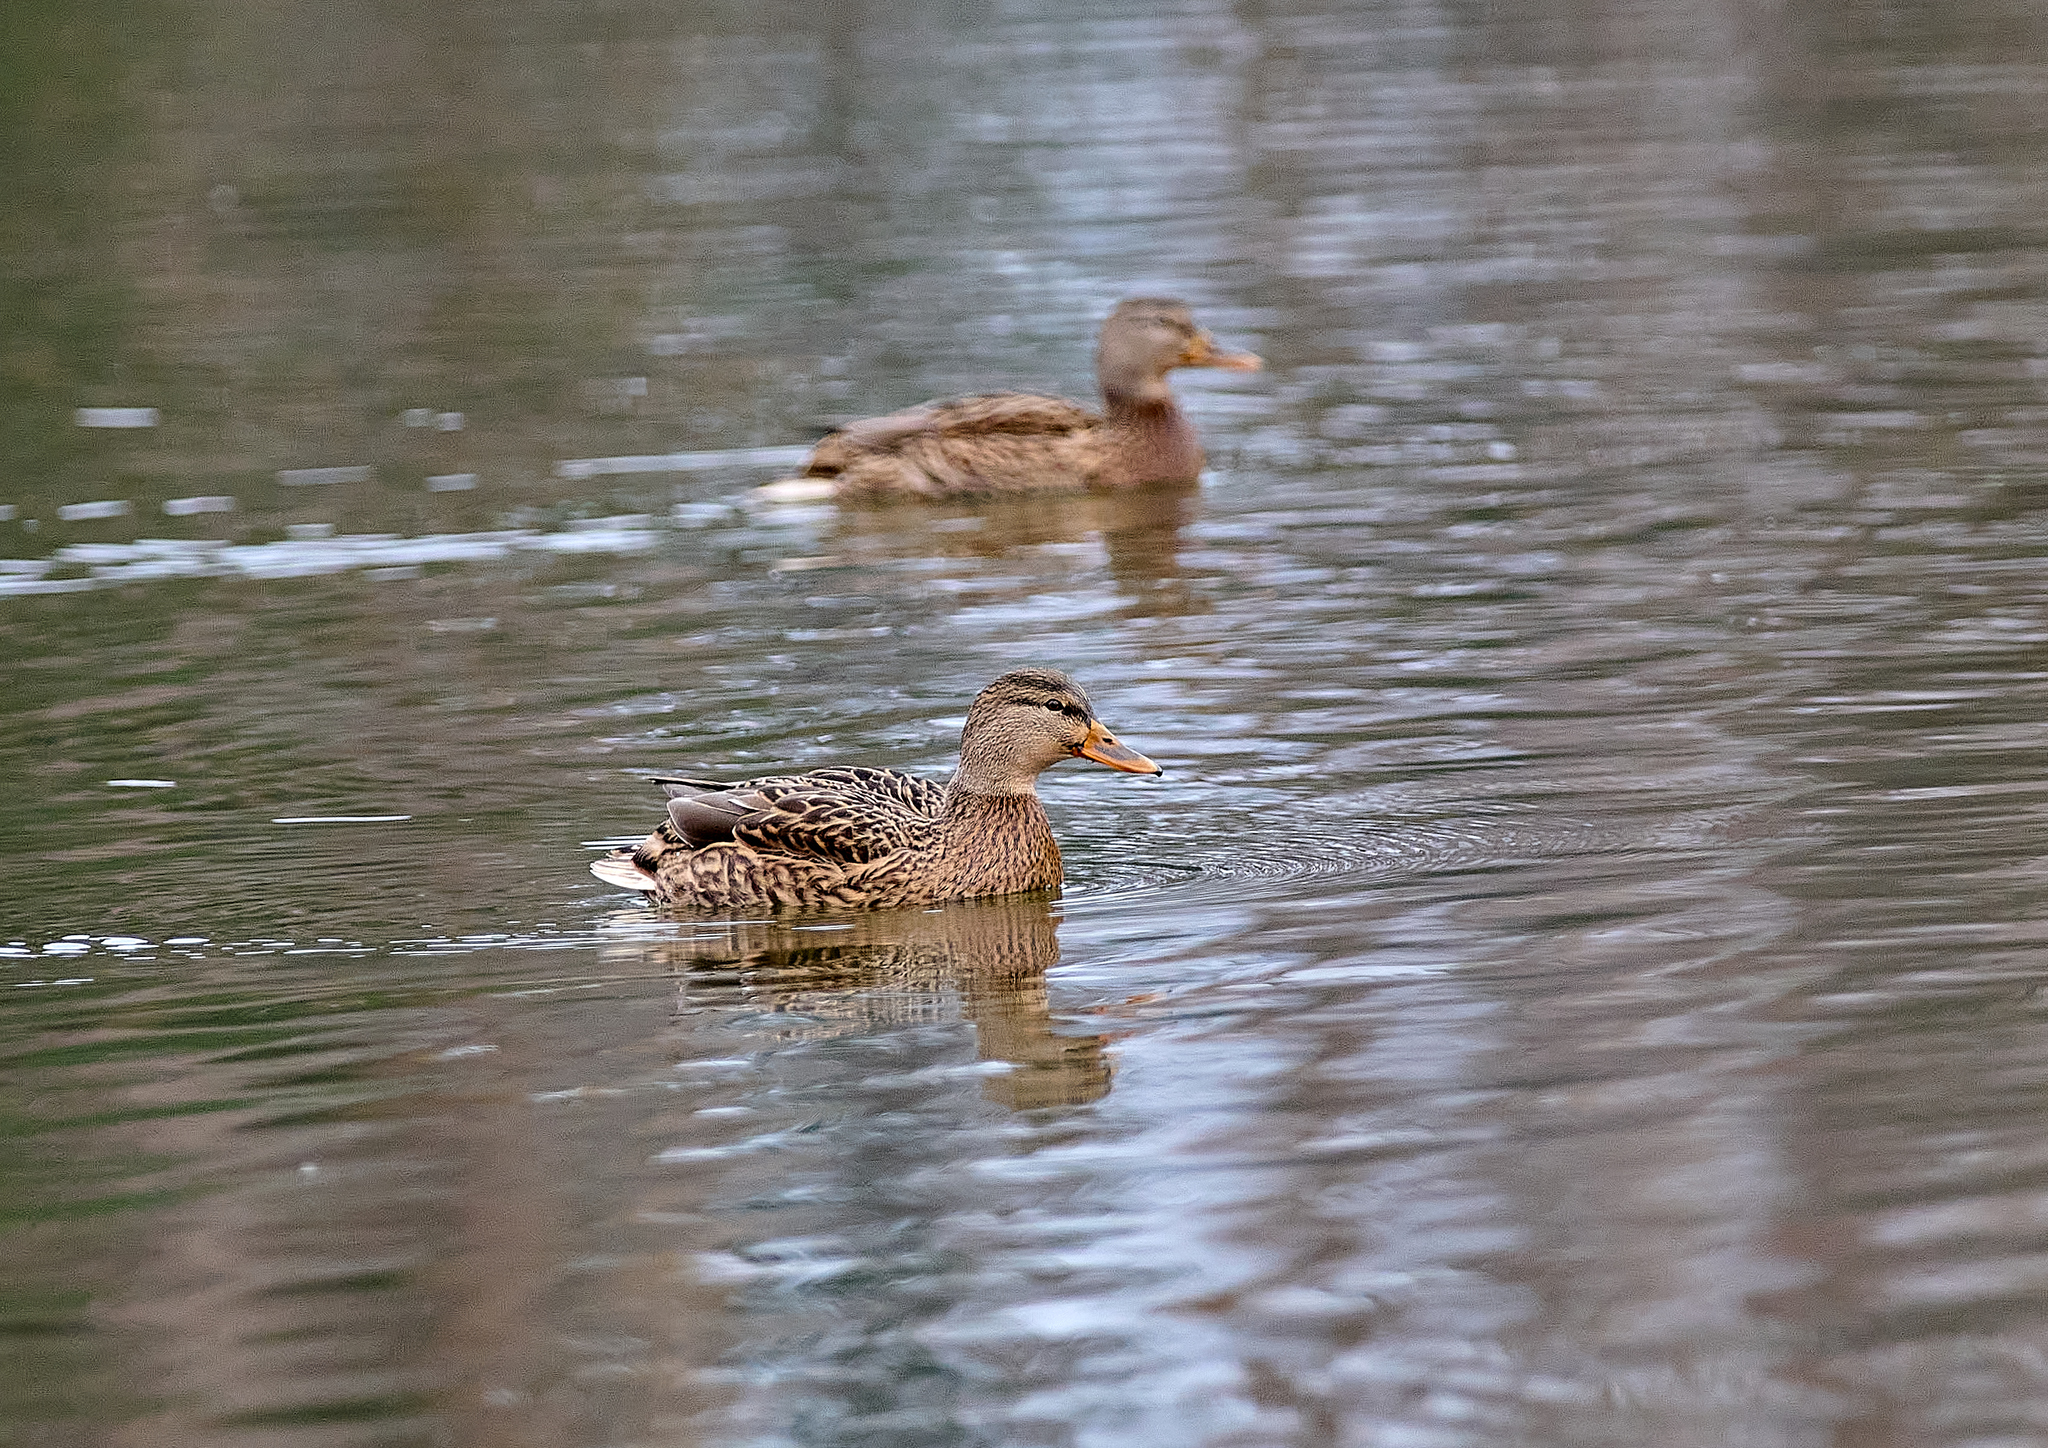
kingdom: Animalia
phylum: Chordata
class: Aves
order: Anseriformes
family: Anatidae
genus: Anas
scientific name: Anas platyrhynchos
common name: Mallard
